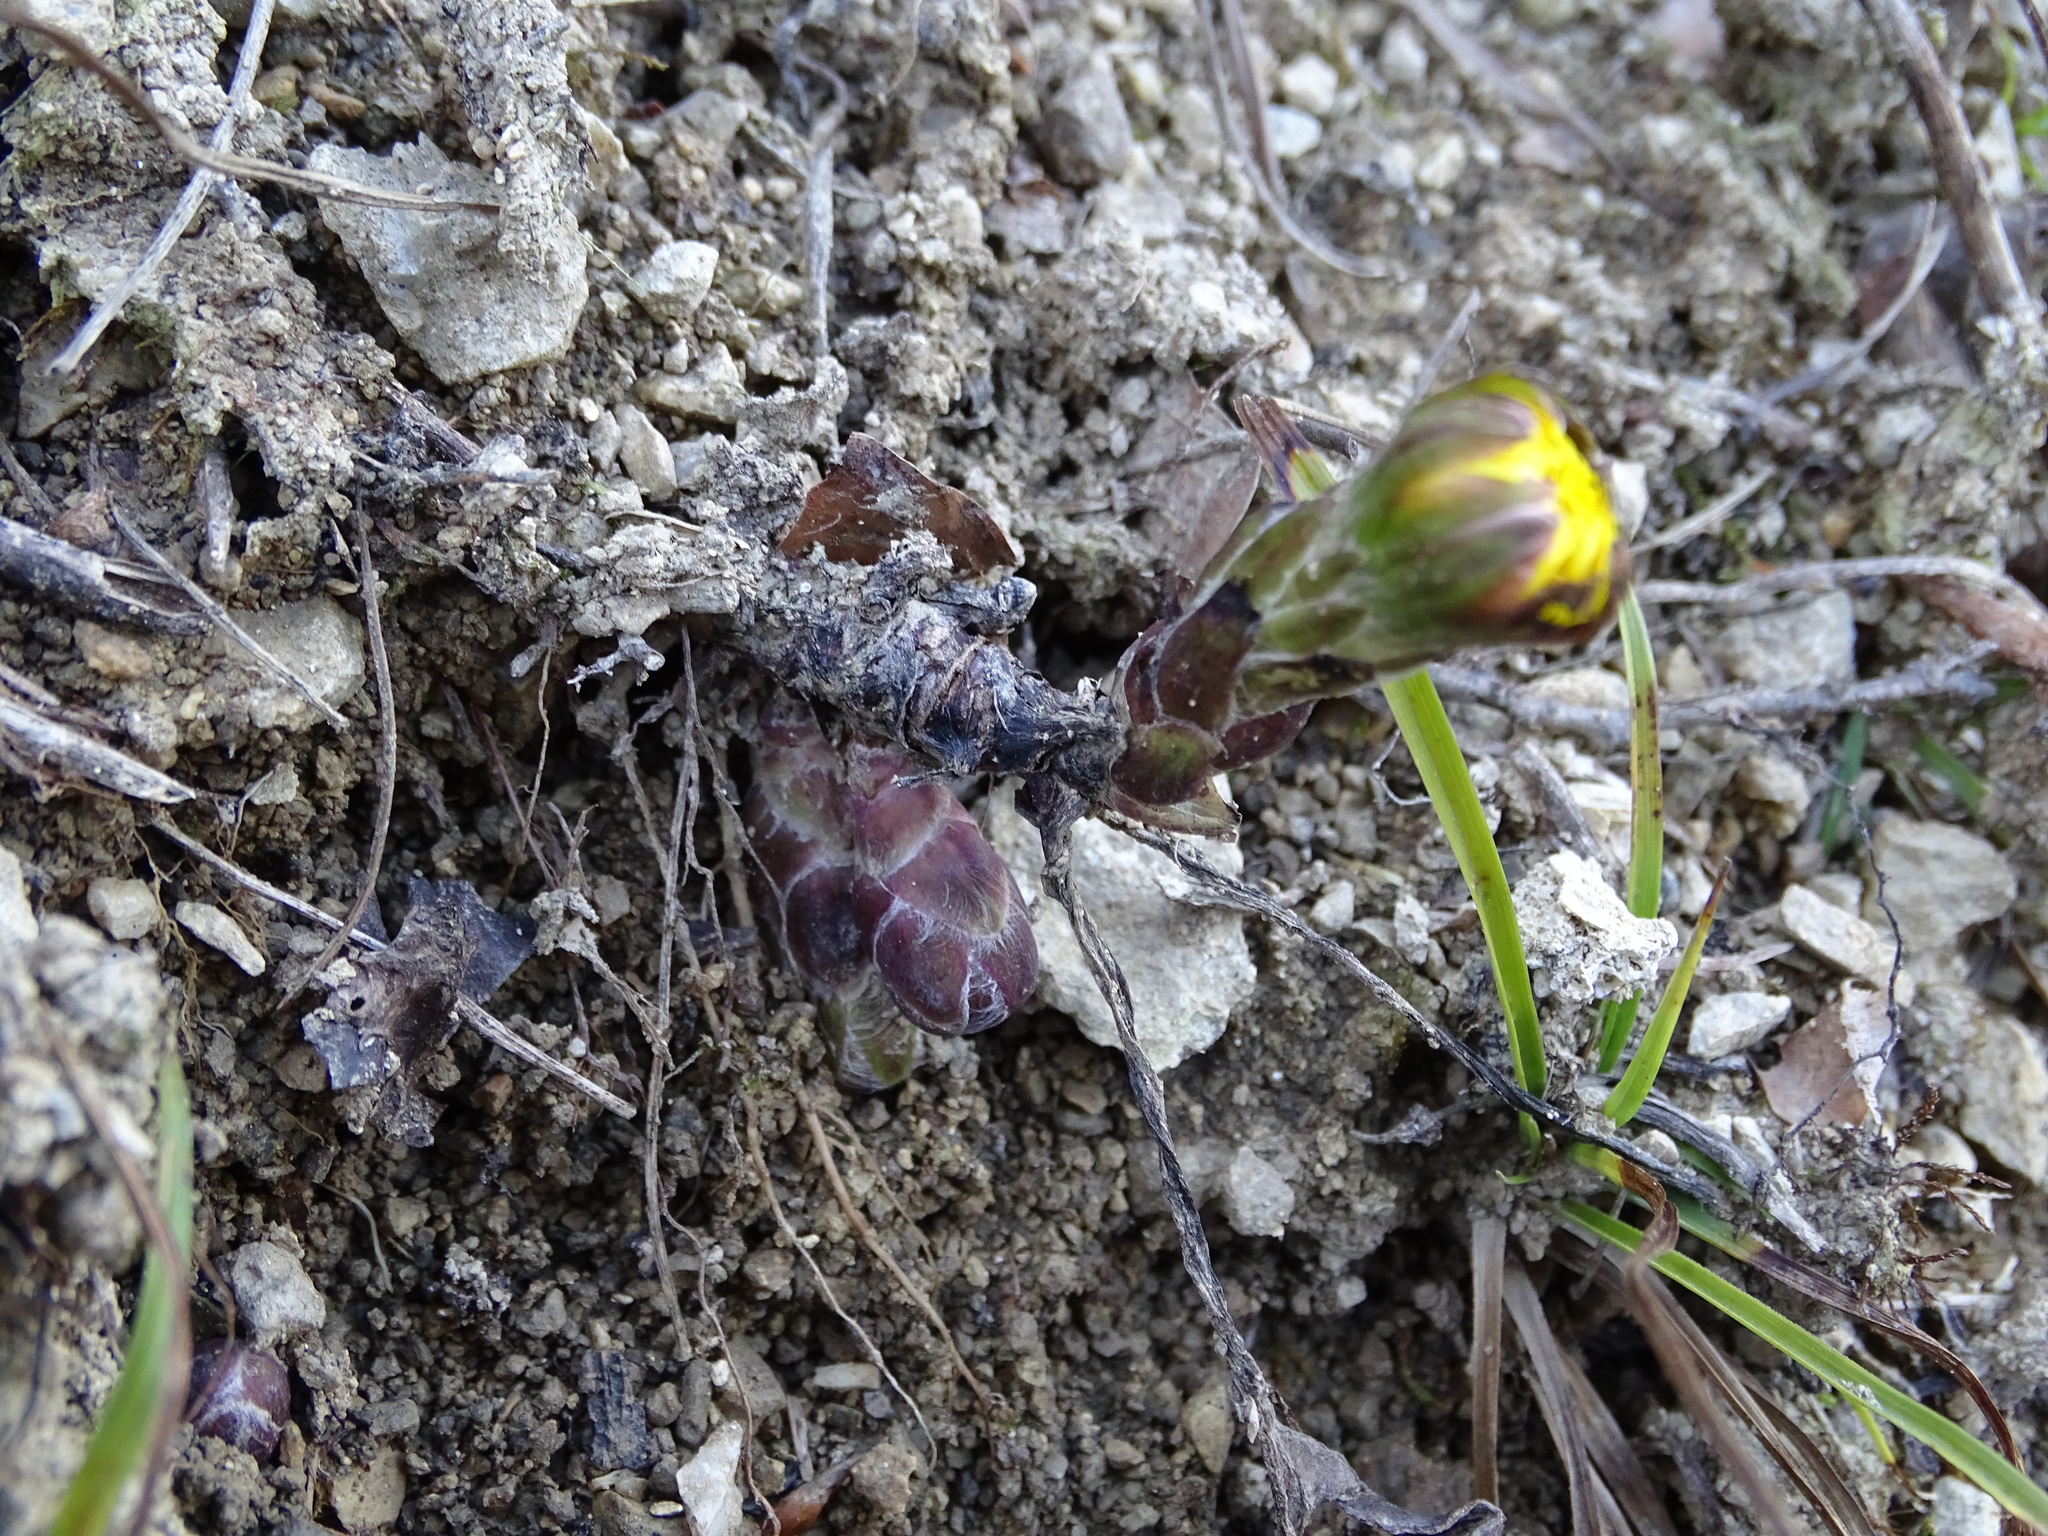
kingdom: Plantae
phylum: Tracheophyta
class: Magnoliopsida
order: Asterales
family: Asteraceae
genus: Tussilago
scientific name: Tussilago farfara
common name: Coltsfoot
